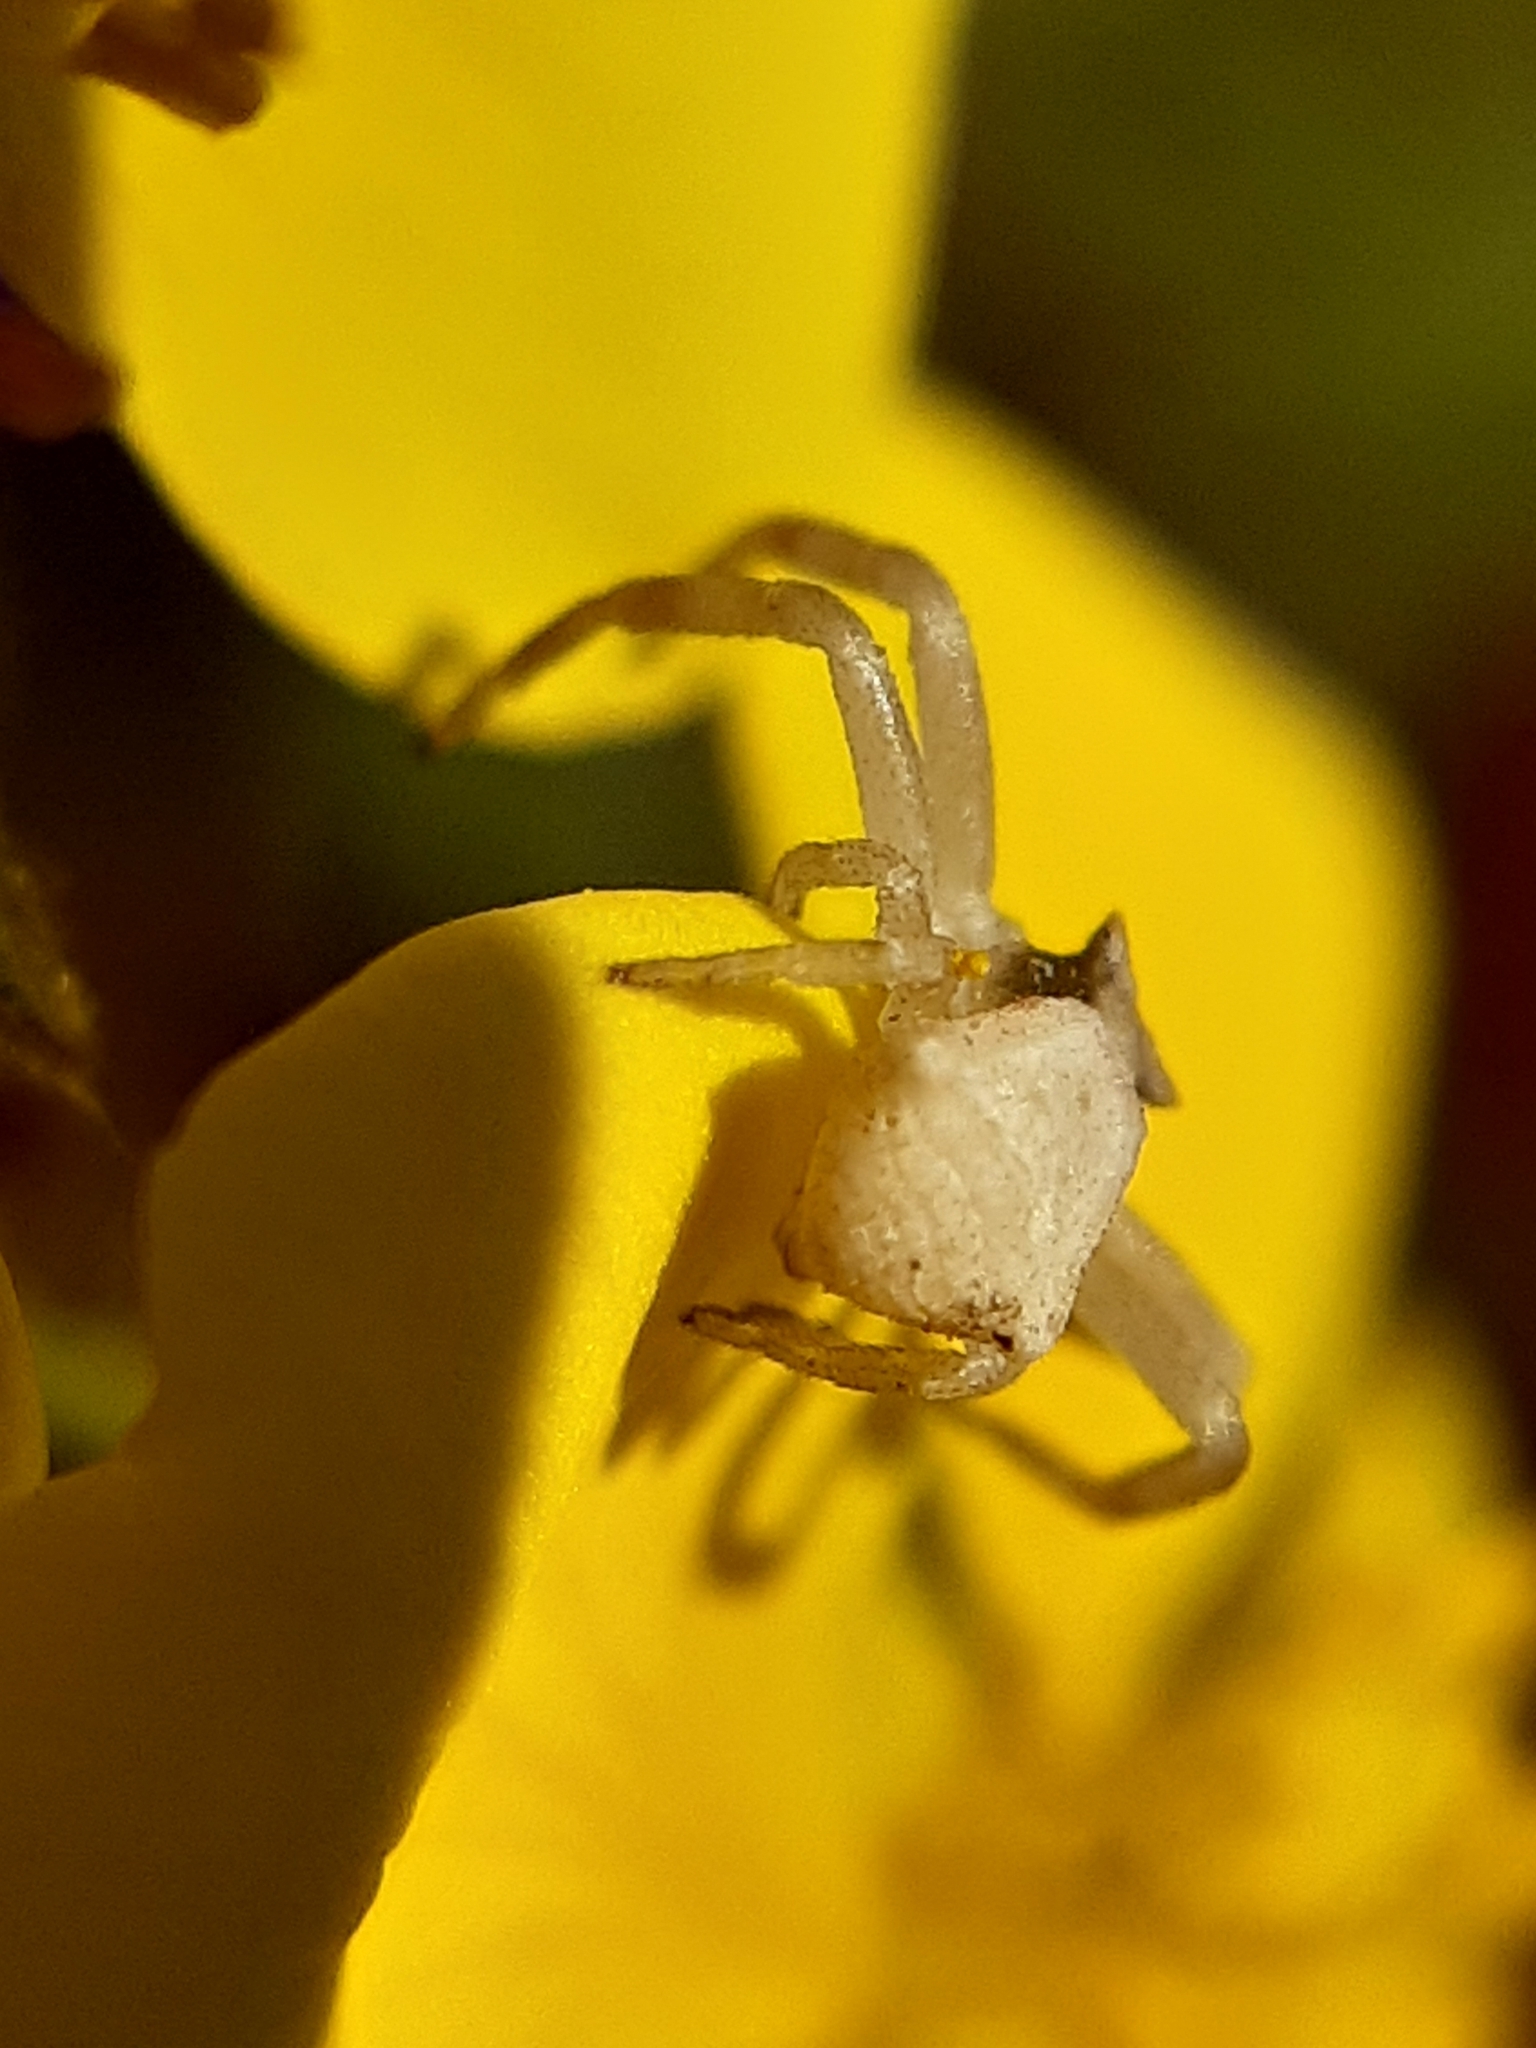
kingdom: Animalia
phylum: Arthropoda
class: Arachnida
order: Araneae
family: Thomisidae
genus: Thomisus
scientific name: Thomisus onustus
